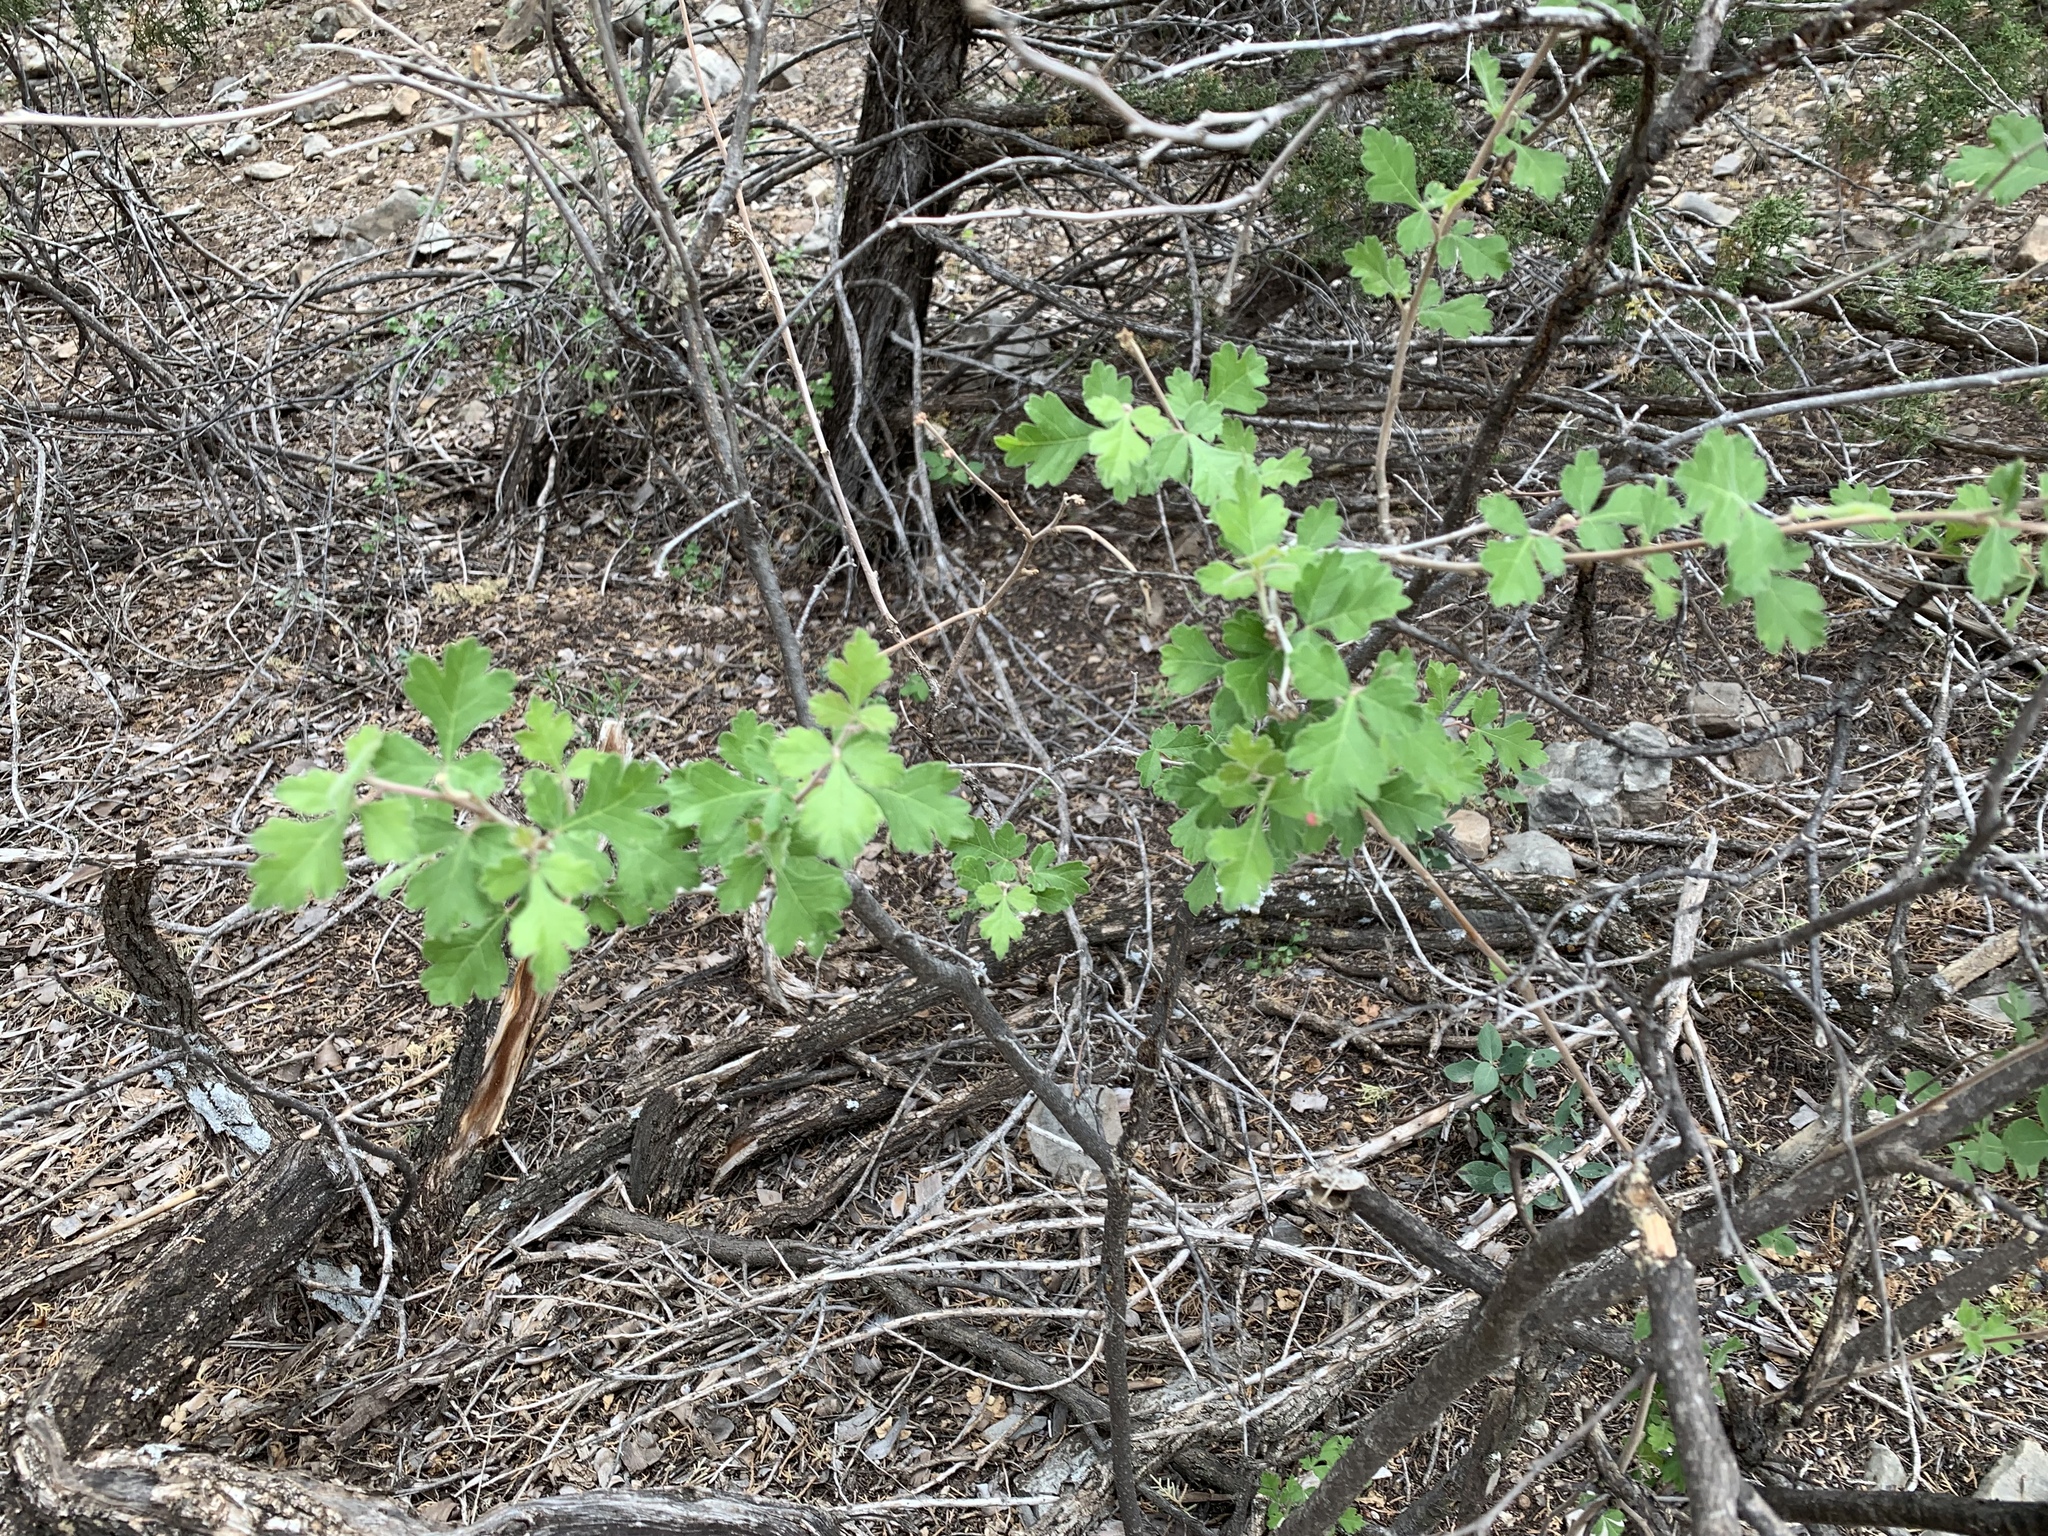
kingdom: Plantae
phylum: Tracheophyta
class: Magnoliopsida
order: Sapindales
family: Anacardiaceae
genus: Rhus
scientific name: Rhus aromatica
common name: Aromatic sumac
